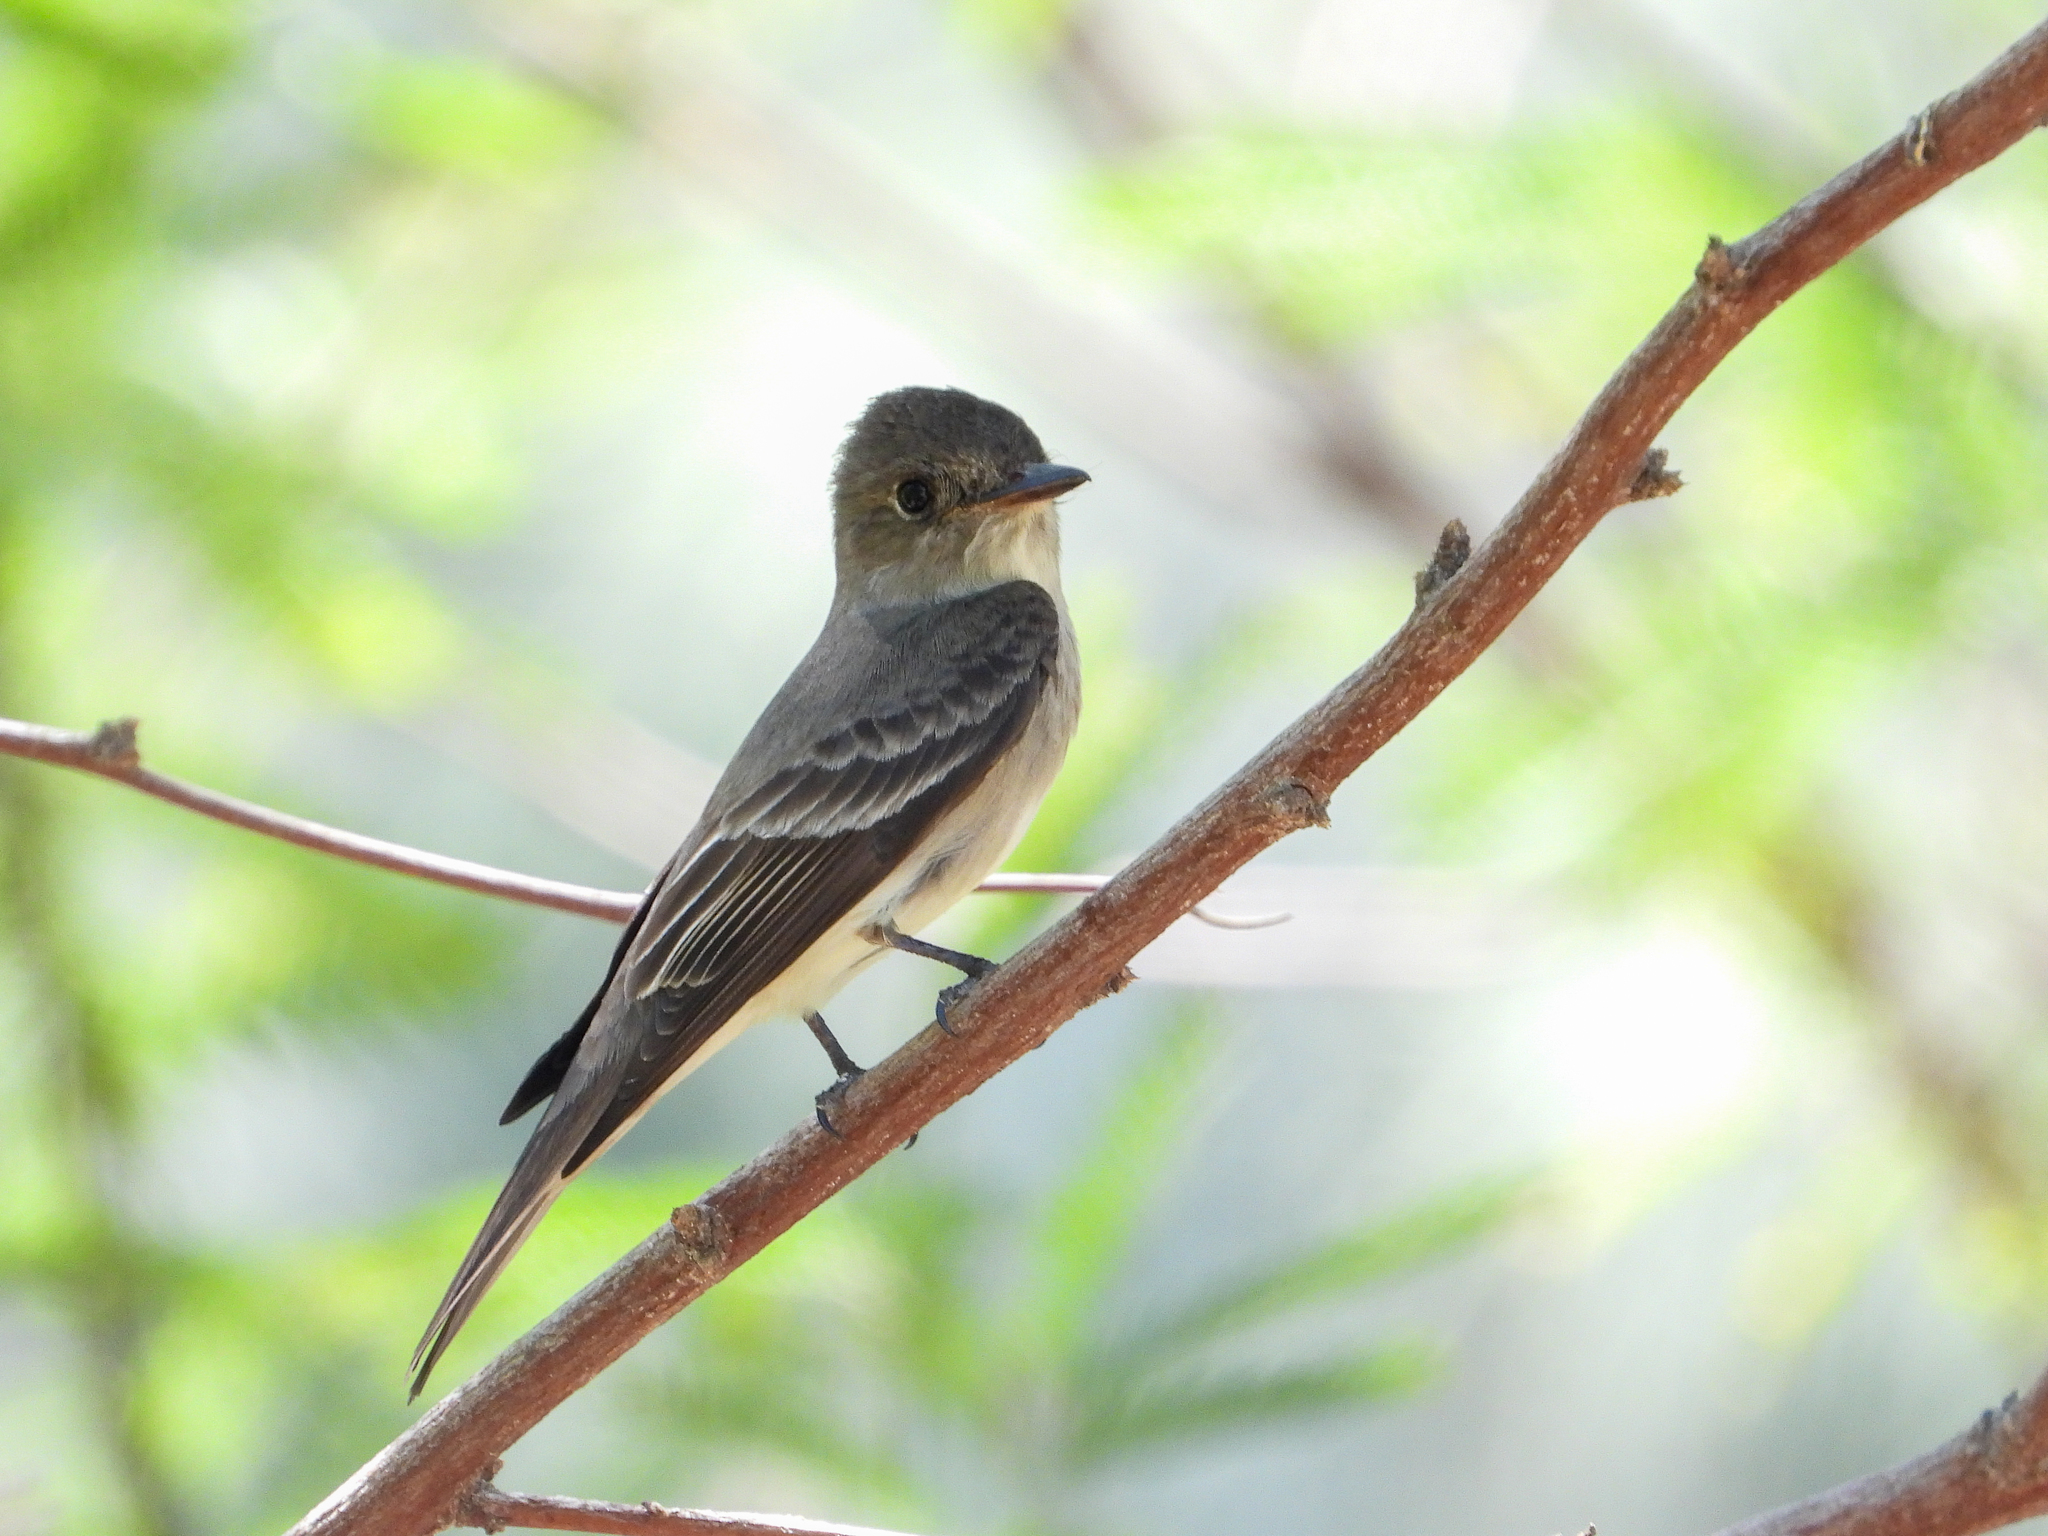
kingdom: Animalia
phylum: Chordata
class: Aves
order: Passeriformes
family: Tyrannidae
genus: Contopus
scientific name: Contopus sordidulus
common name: Western wood-pewee
